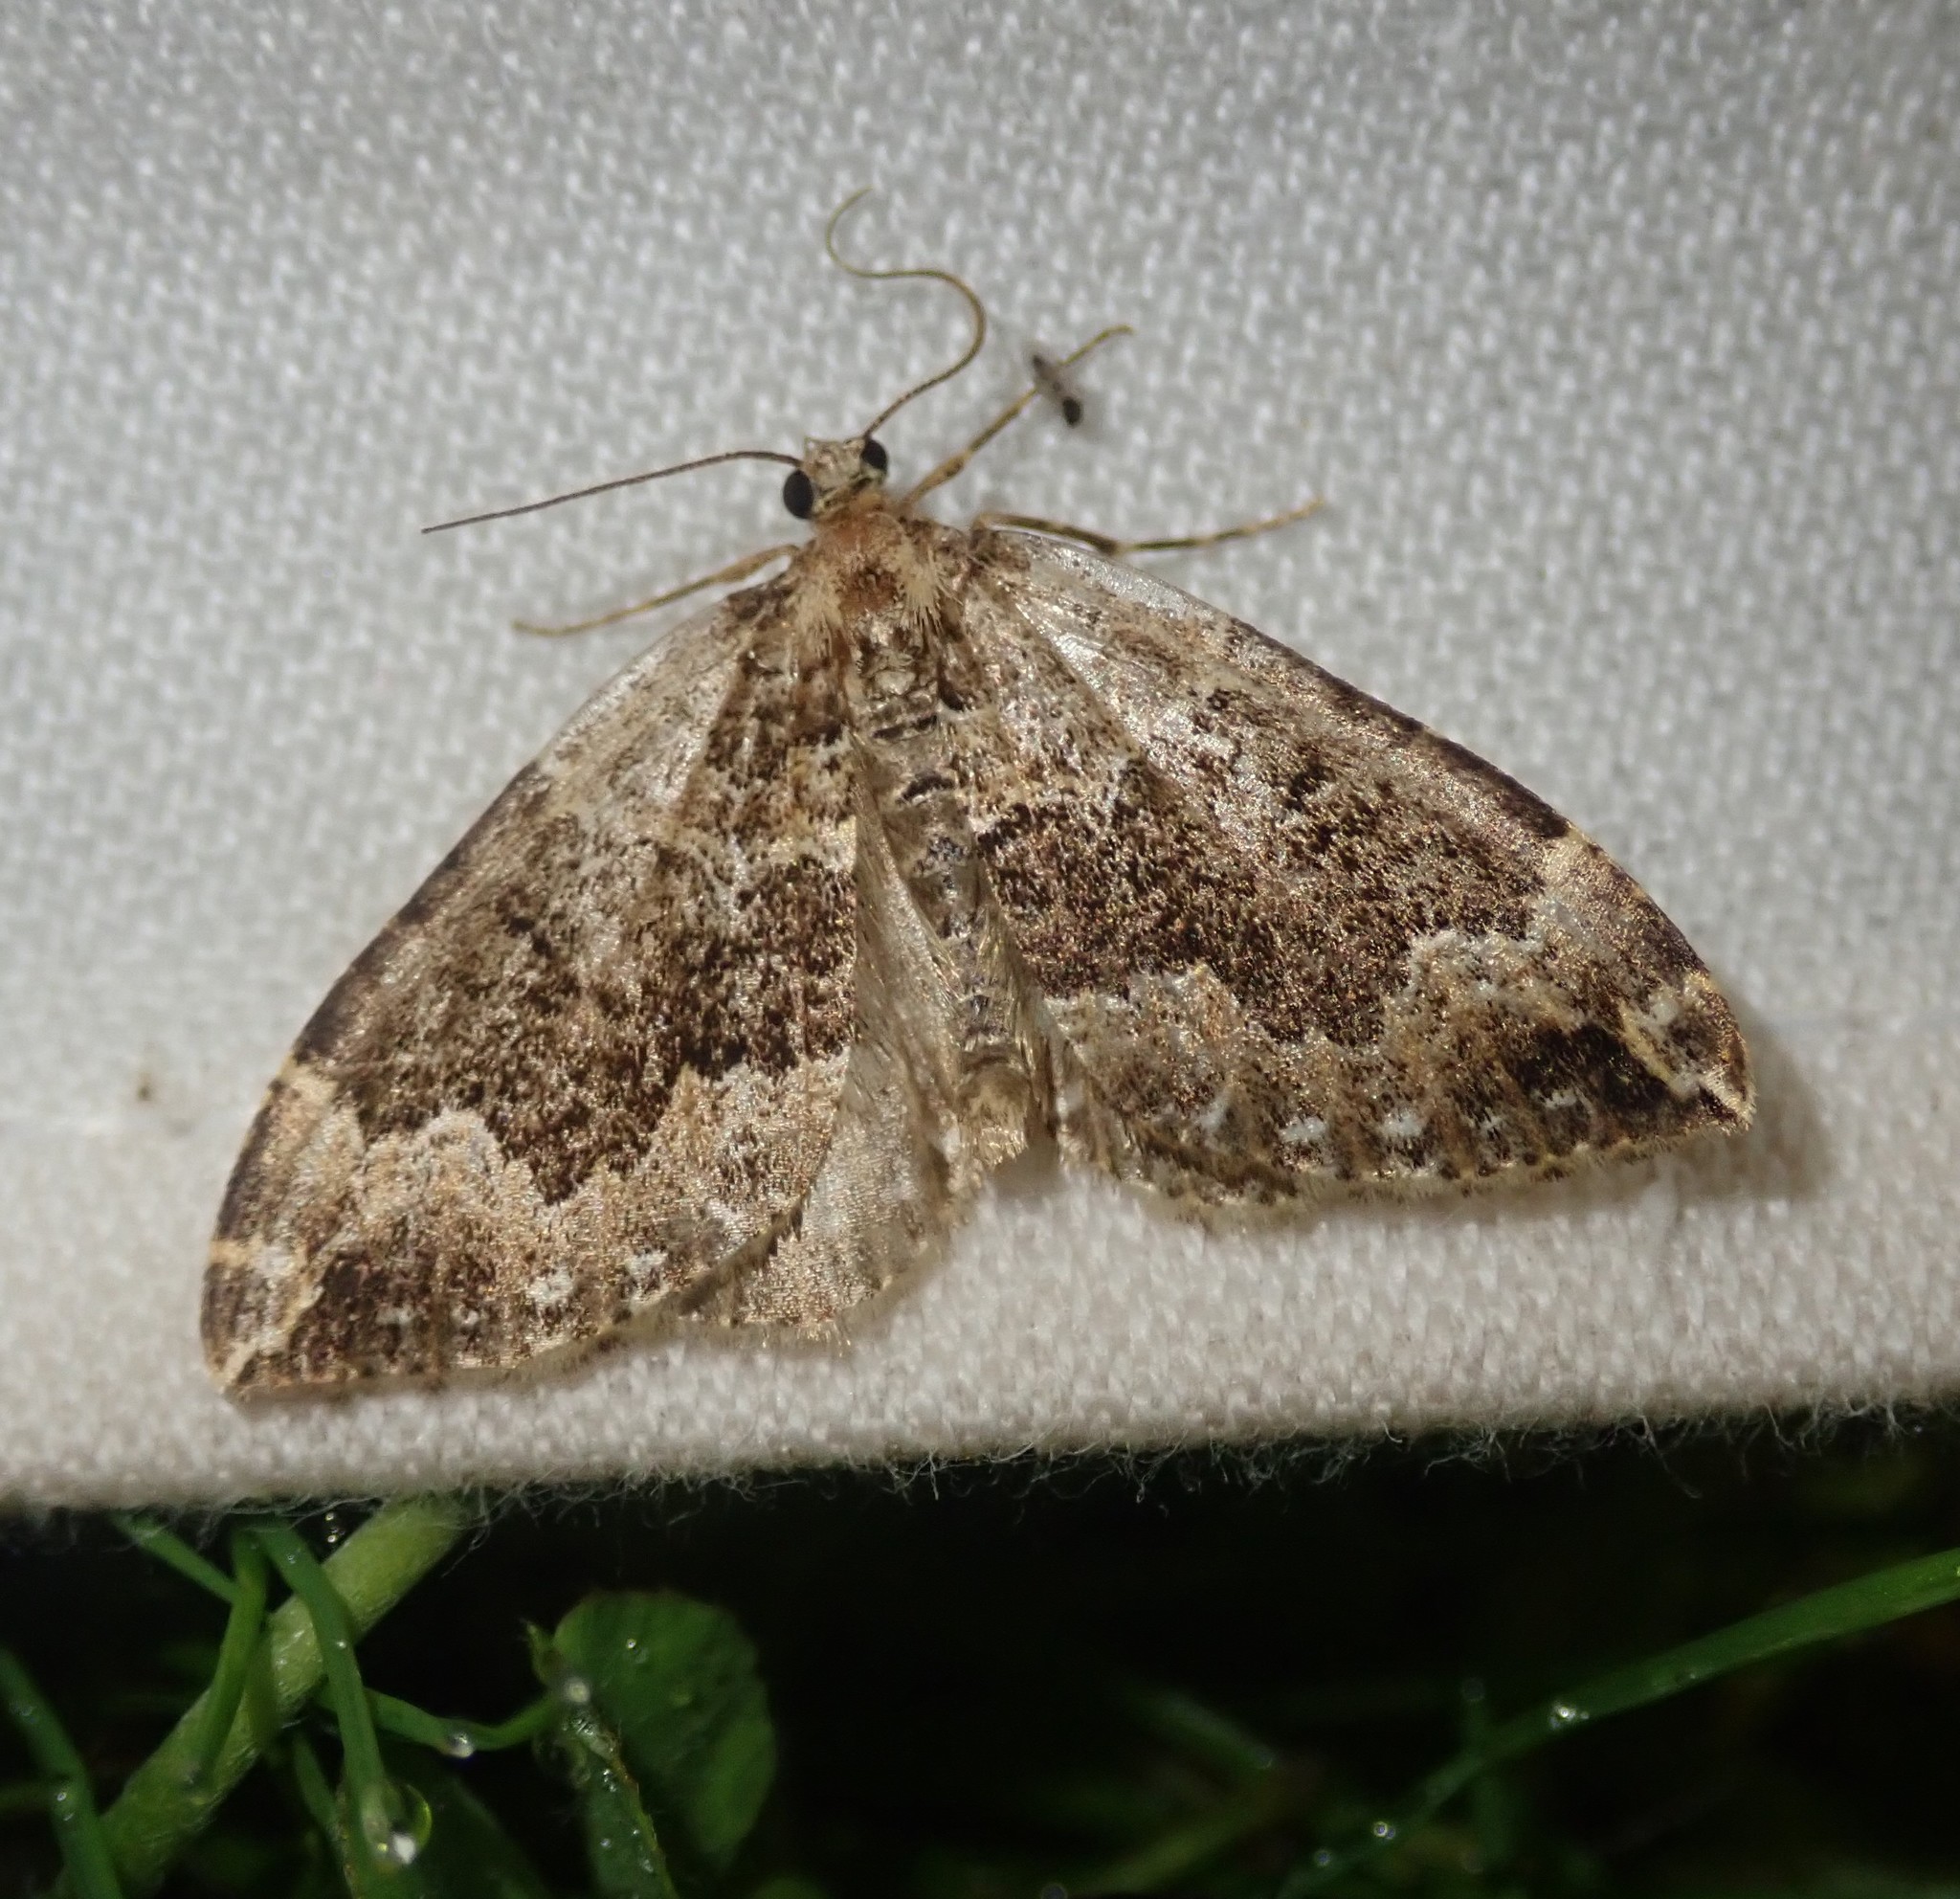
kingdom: Animalia
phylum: Arthropoda
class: Insecta
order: Lepidoptera
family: Geometridae
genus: Lampropteryx
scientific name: Lampropteryx suffumata
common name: Water carpet
